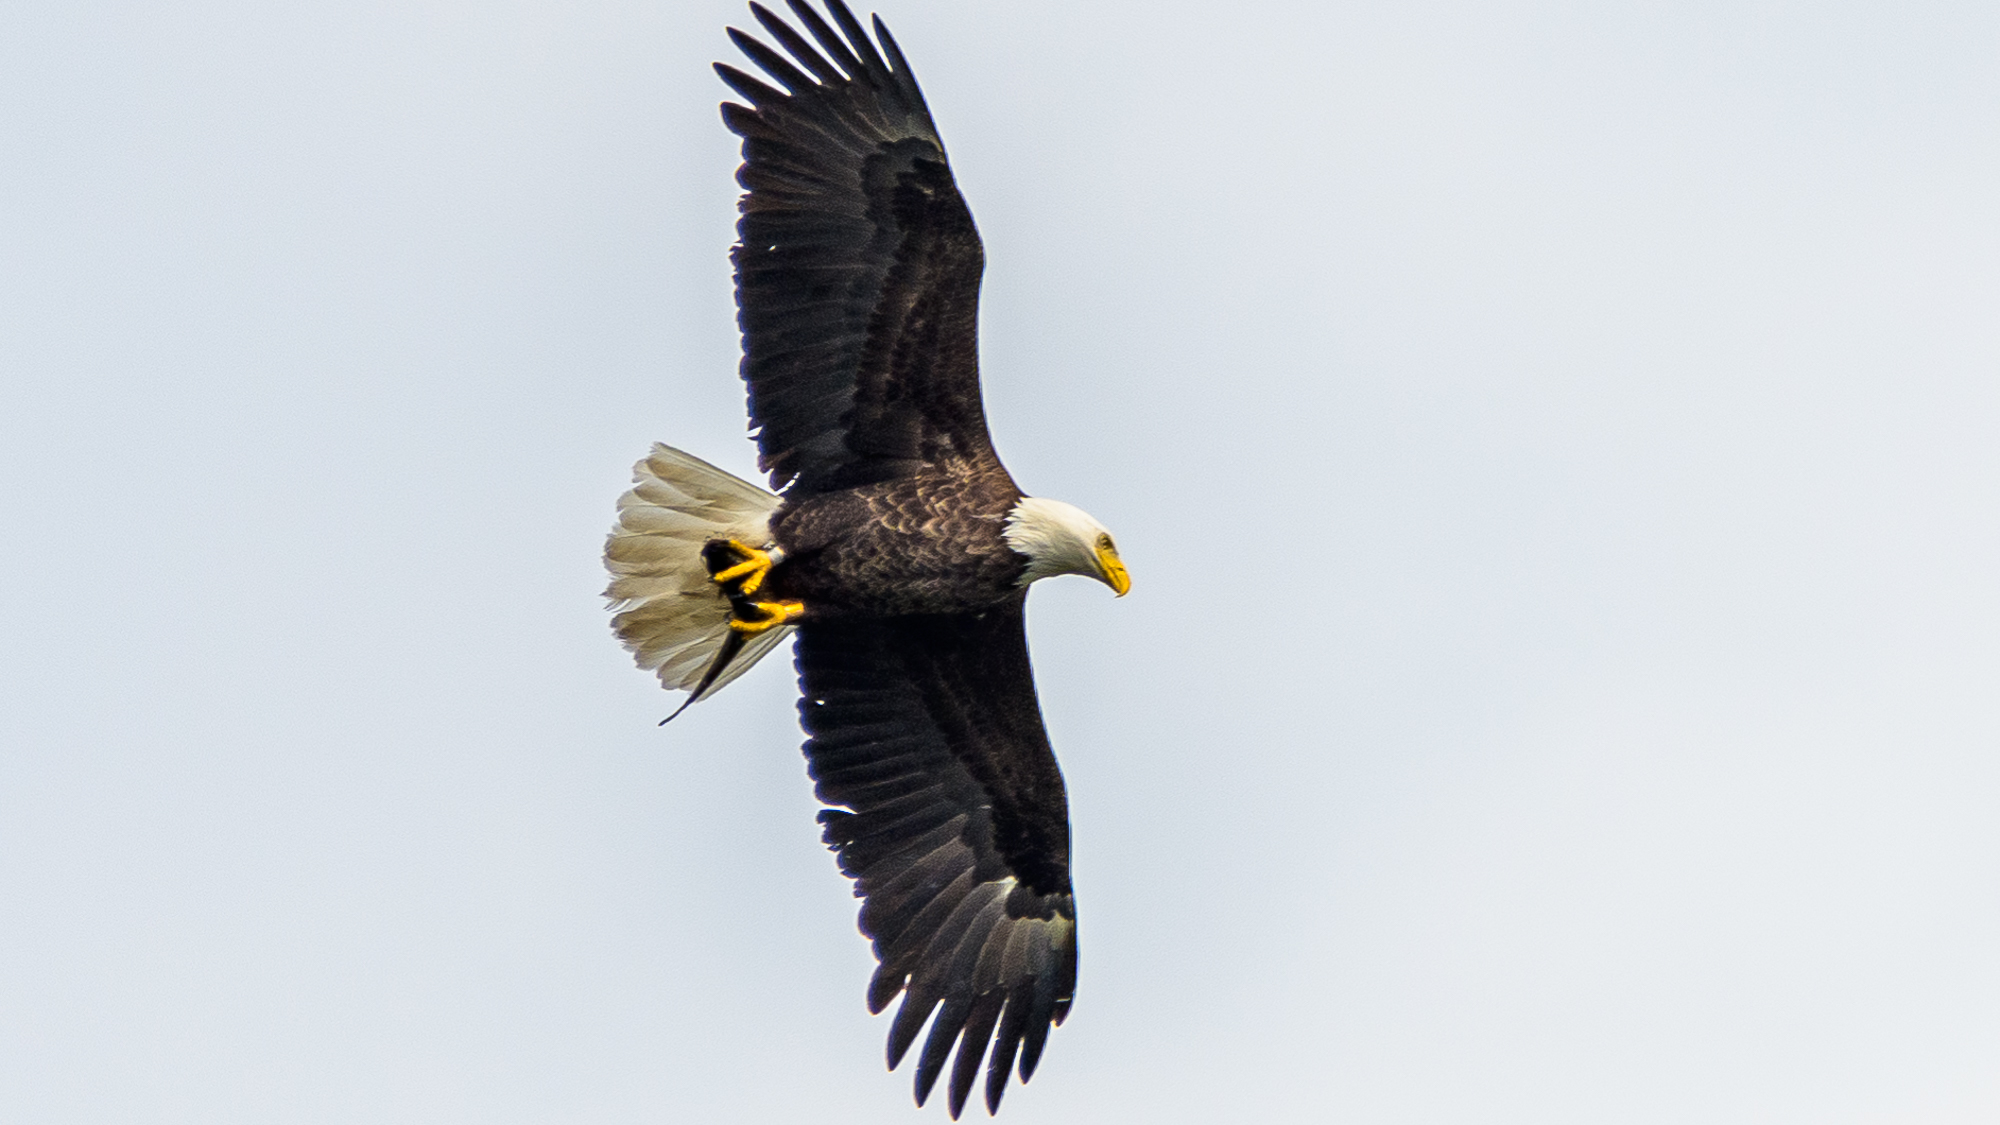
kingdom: Animalia
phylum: Chordata
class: Aves
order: Accipitriformes
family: Accipitridae
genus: Haliaeetus
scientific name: Haliaeetus leucocephalus
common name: Bald eagle
